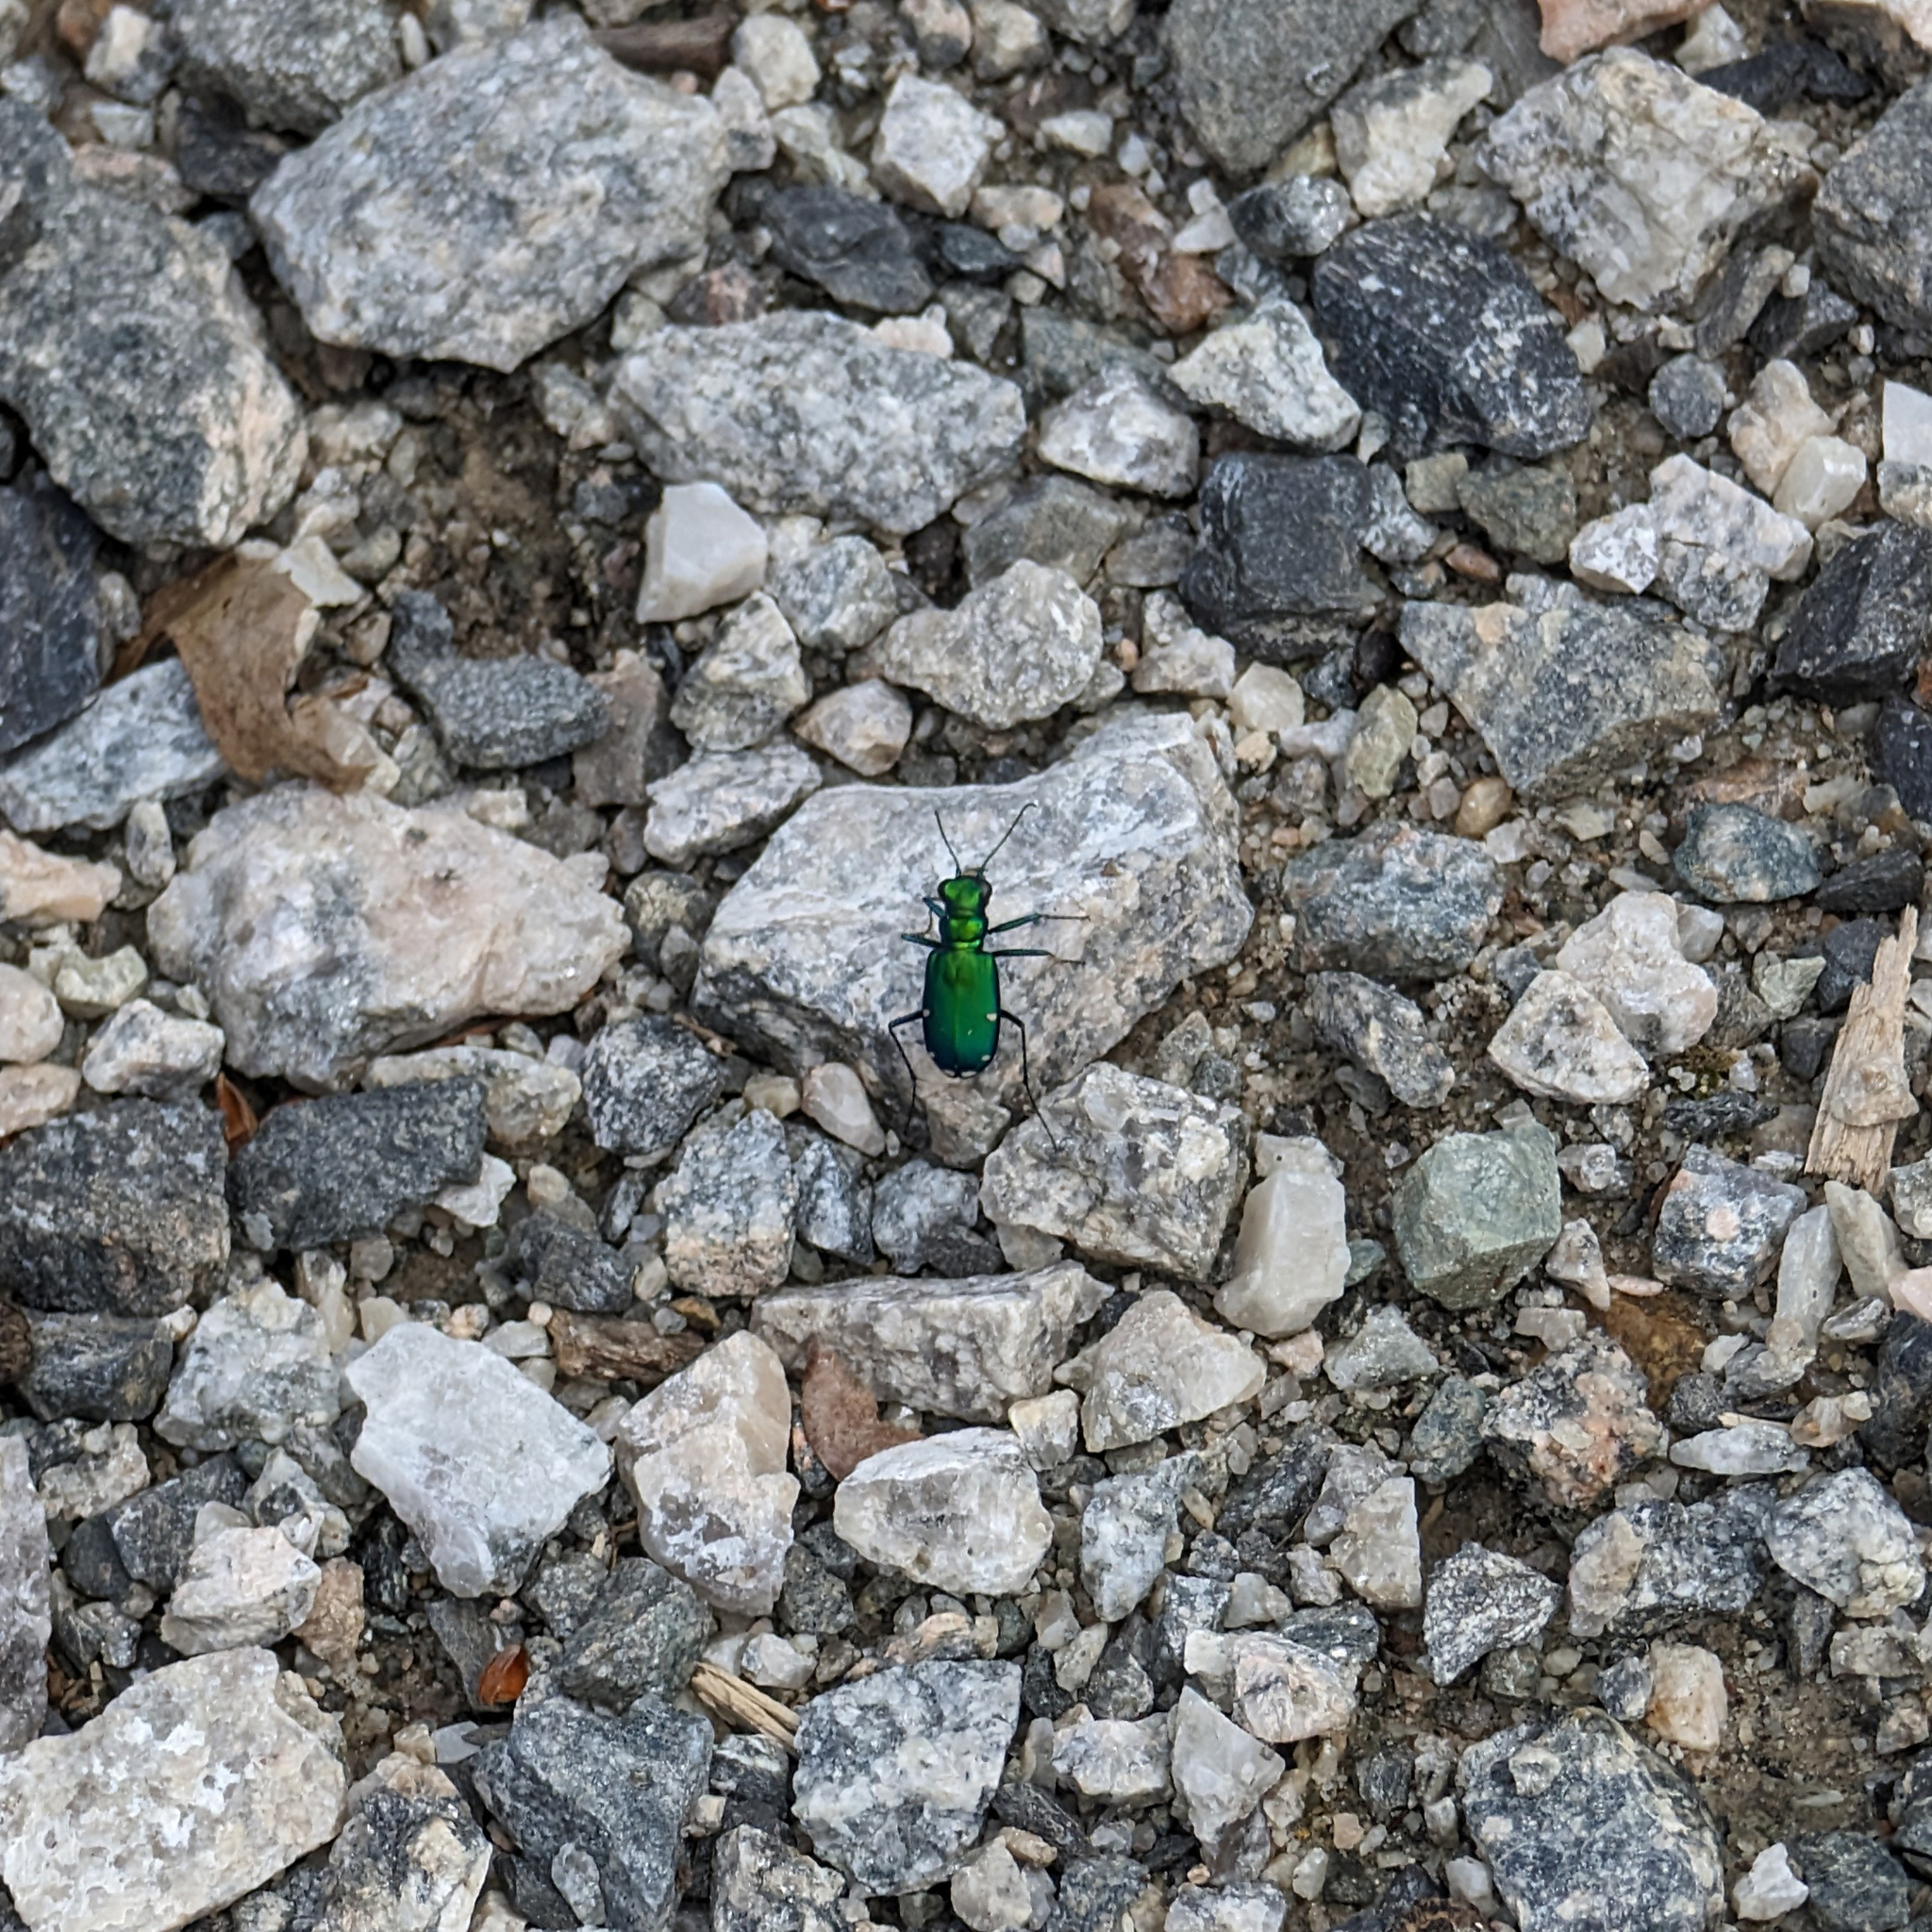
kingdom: Animalia
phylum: Arthropoda
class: Insecta
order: Coleoptera
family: Carabidae
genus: Cicindela
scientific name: Cicindela sexguttata
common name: Six-spotted tiger beetle
